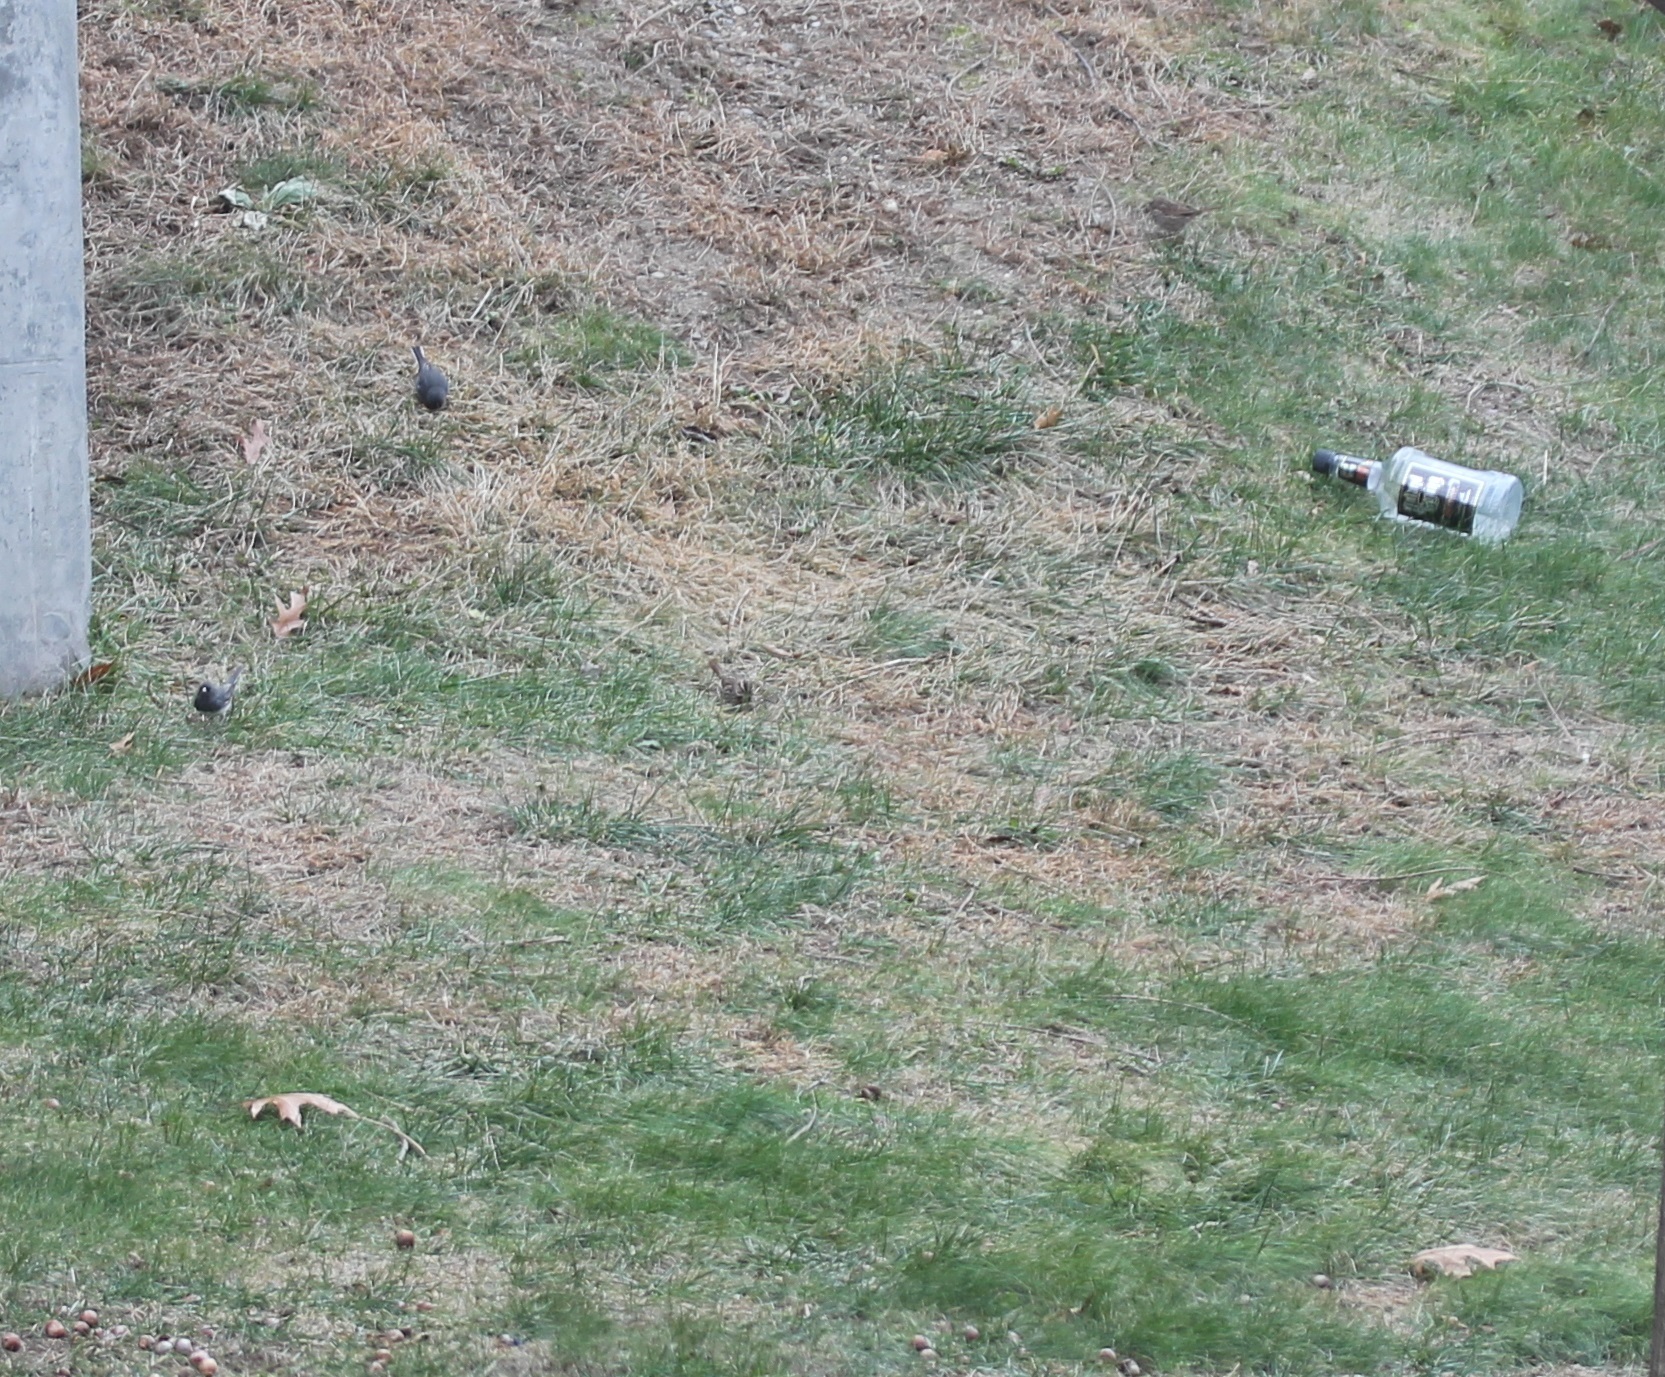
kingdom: Animalia
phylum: Chordata
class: Aves
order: Passeriformes
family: Passerellidae
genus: Melospiza
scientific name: Melospiza melodia
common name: Song sparrow
